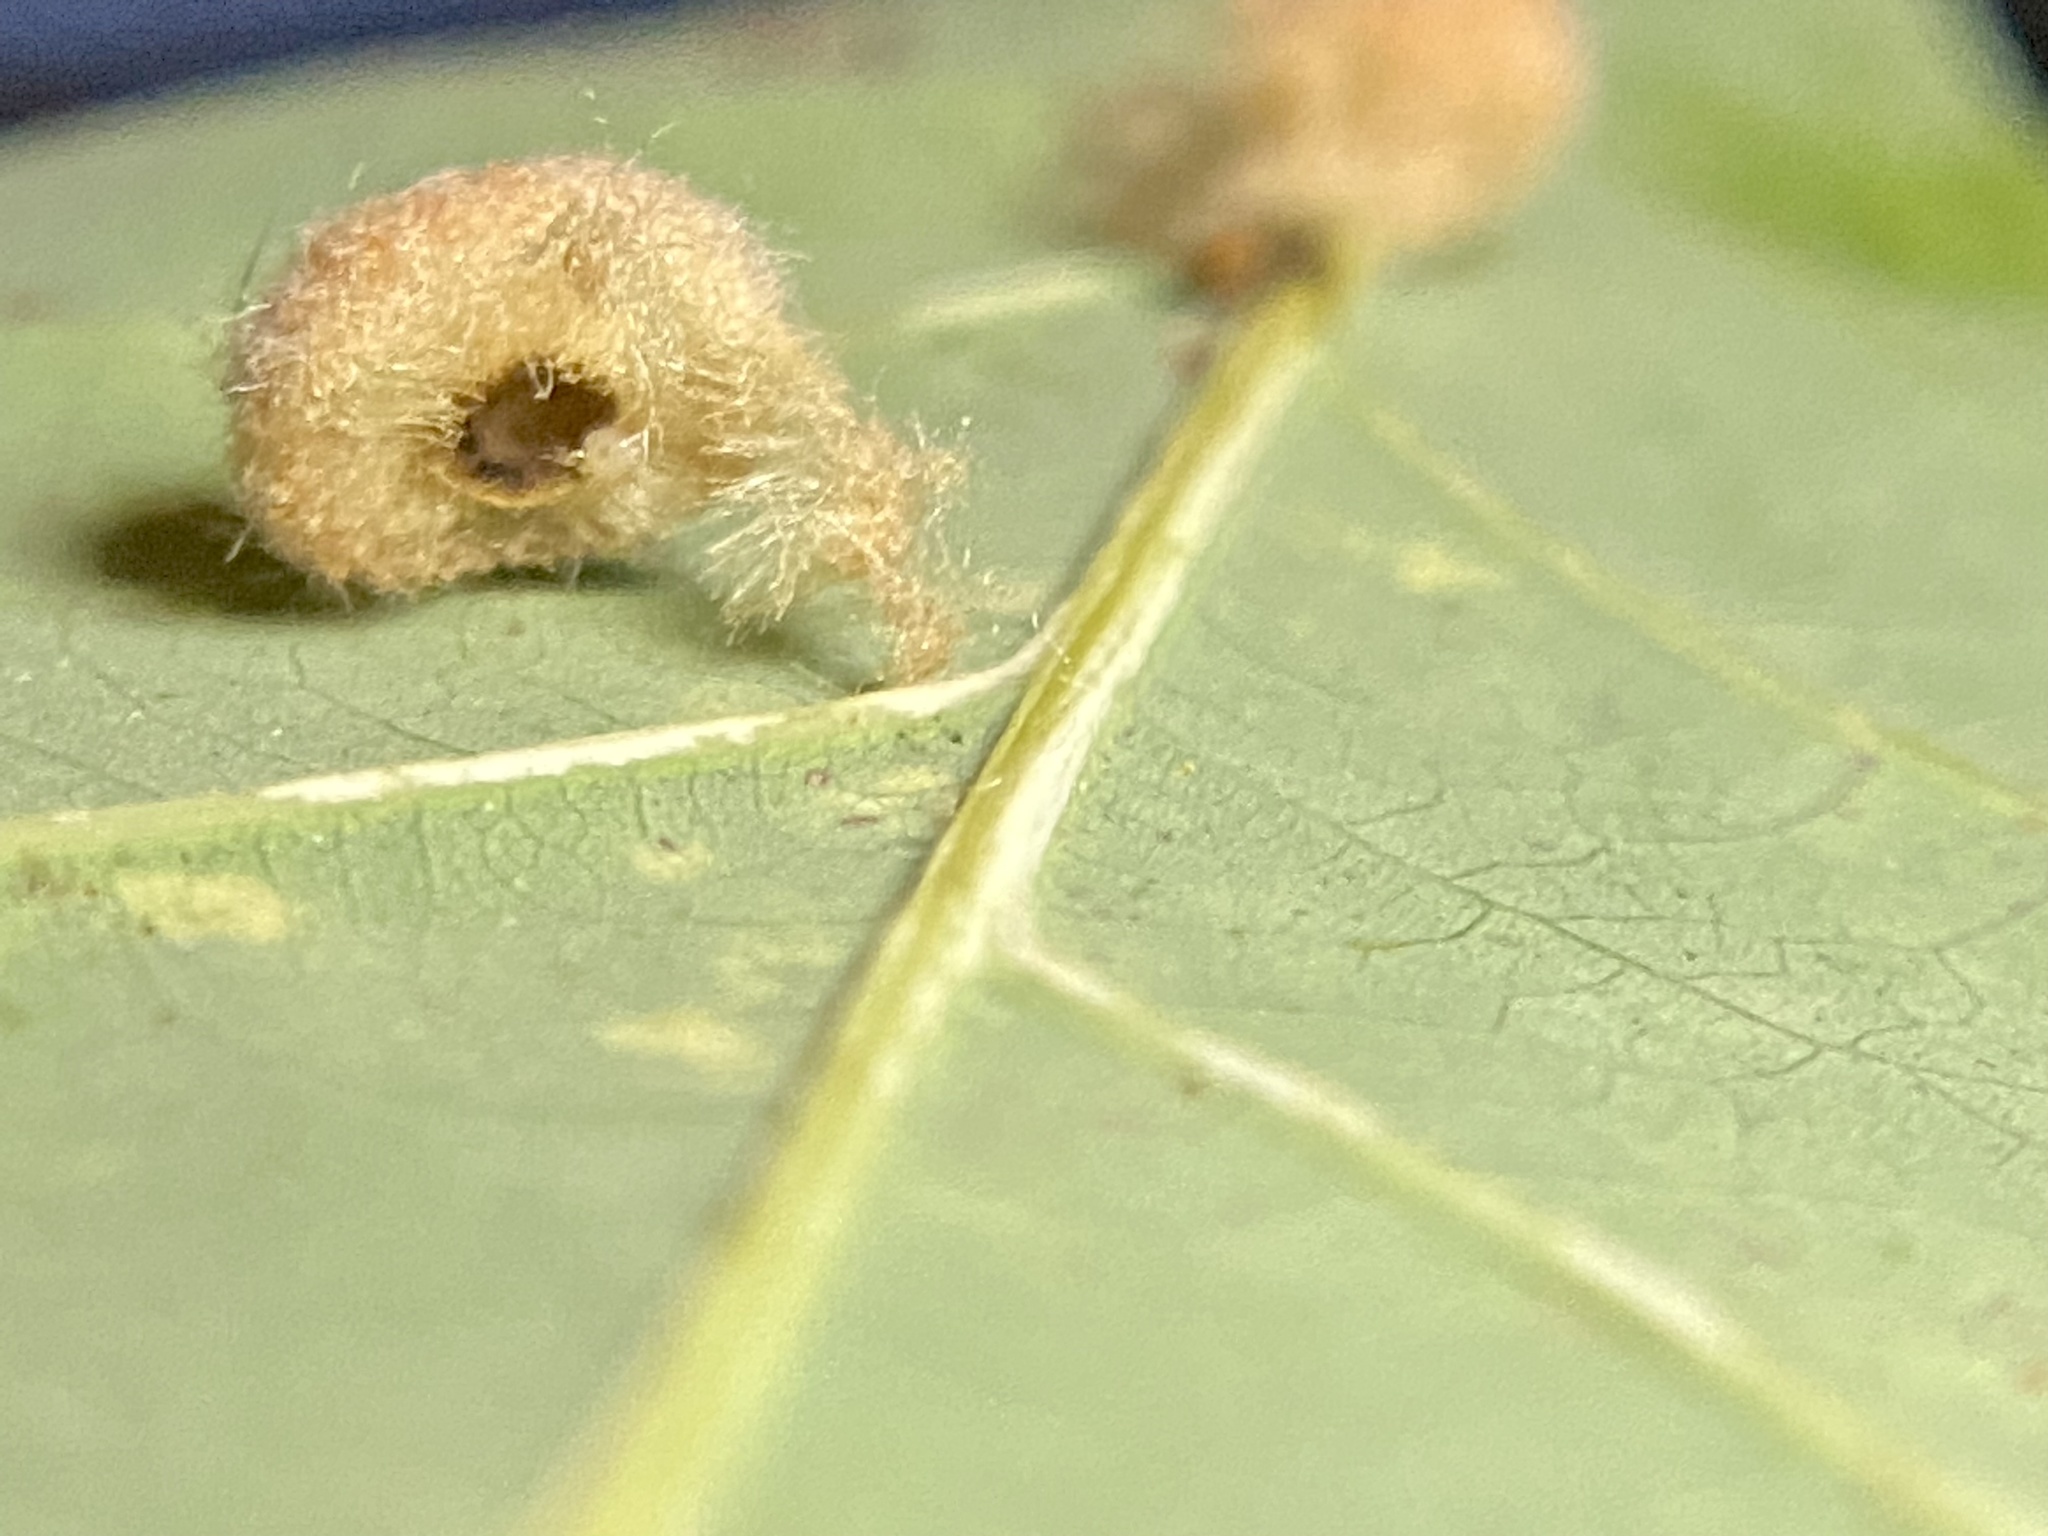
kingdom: Animalia
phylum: Arthropoda
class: Insecta
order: Hymenoptera
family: Cynipidae
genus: Andricus
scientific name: Andricus quercusflocci
